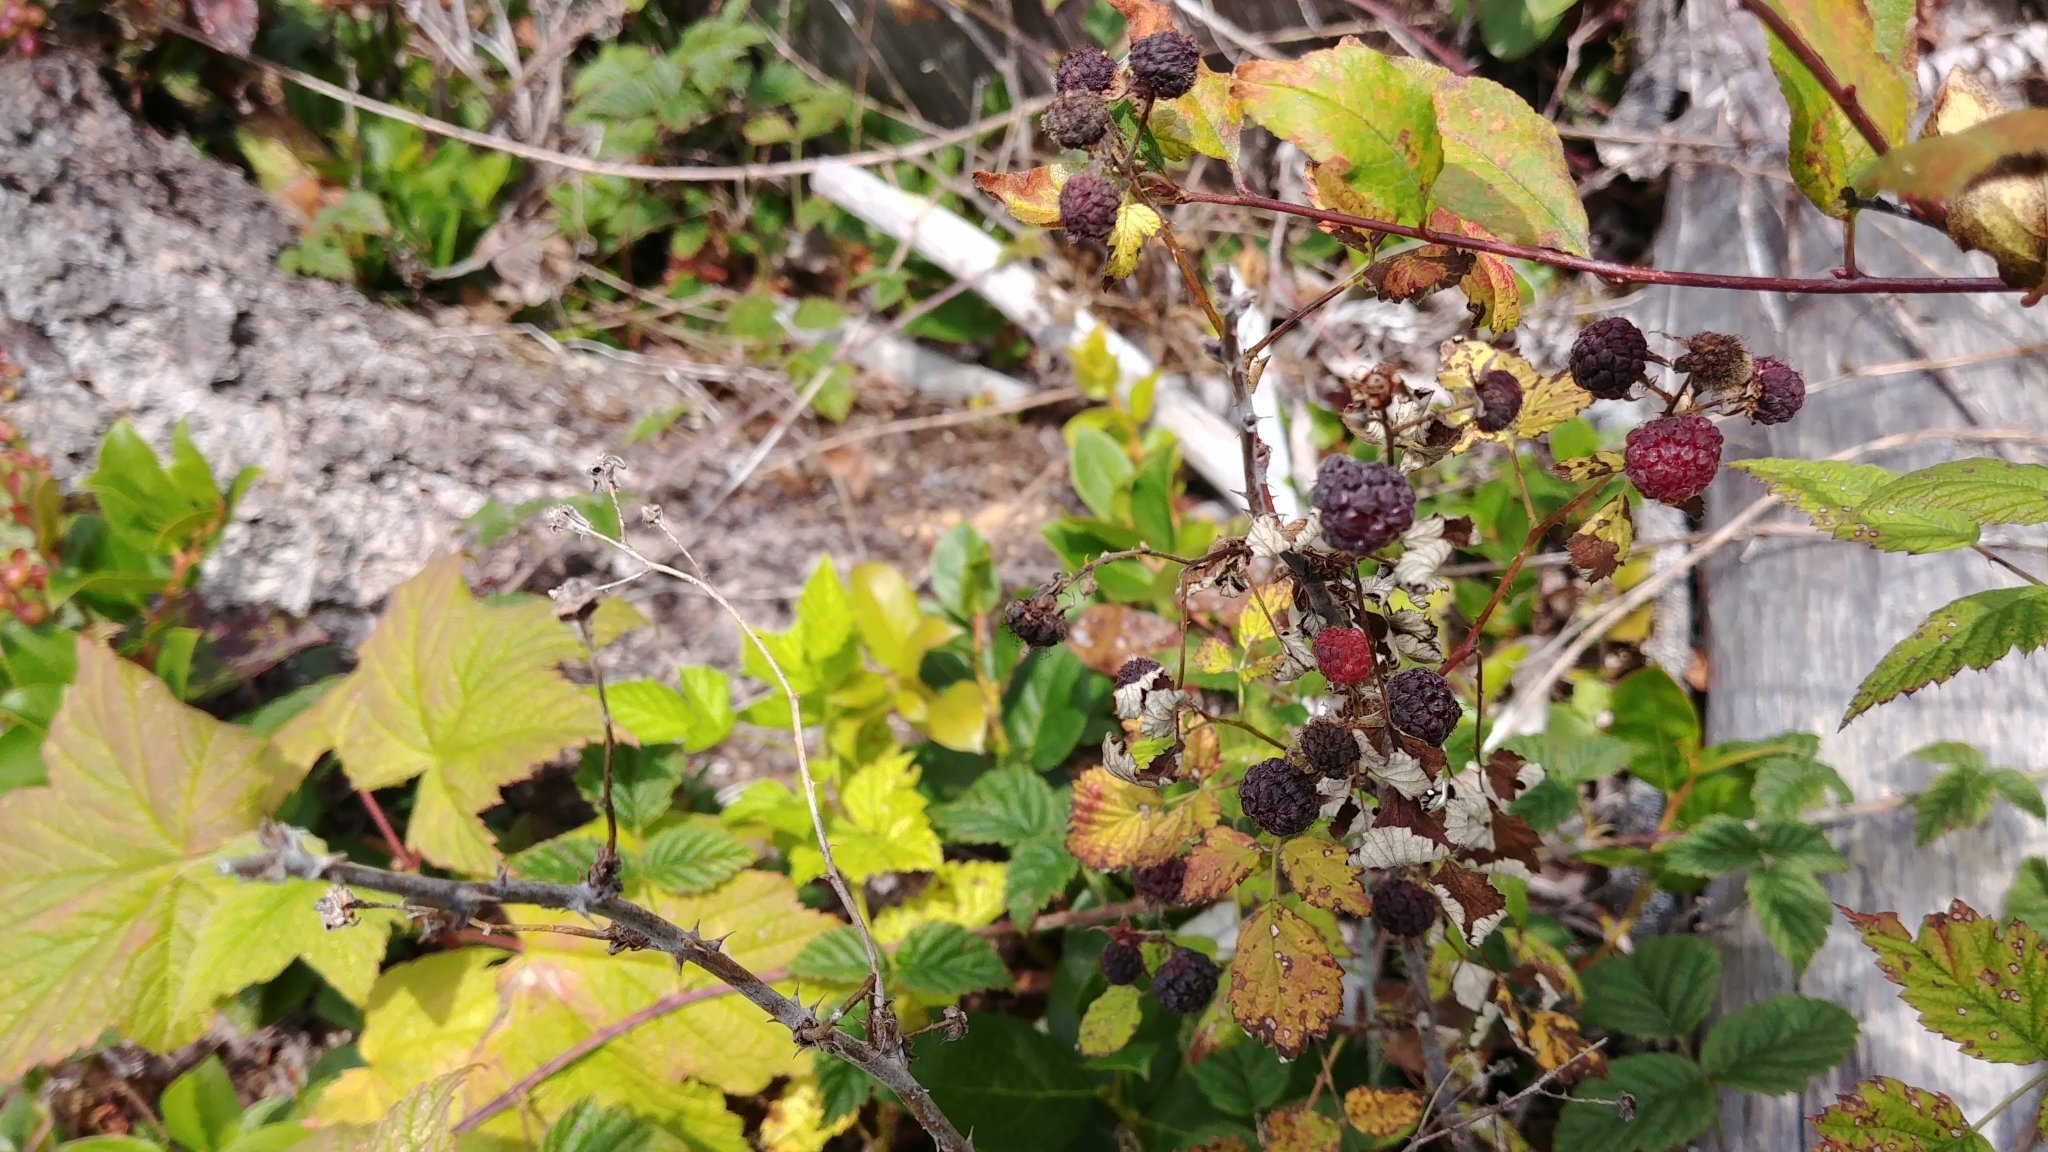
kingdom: Plantae
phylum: Tracheophyta
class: Magnoliopsida
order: Rosales
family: Rosaceae
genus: Rubus
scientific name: Rubus leucodermis
